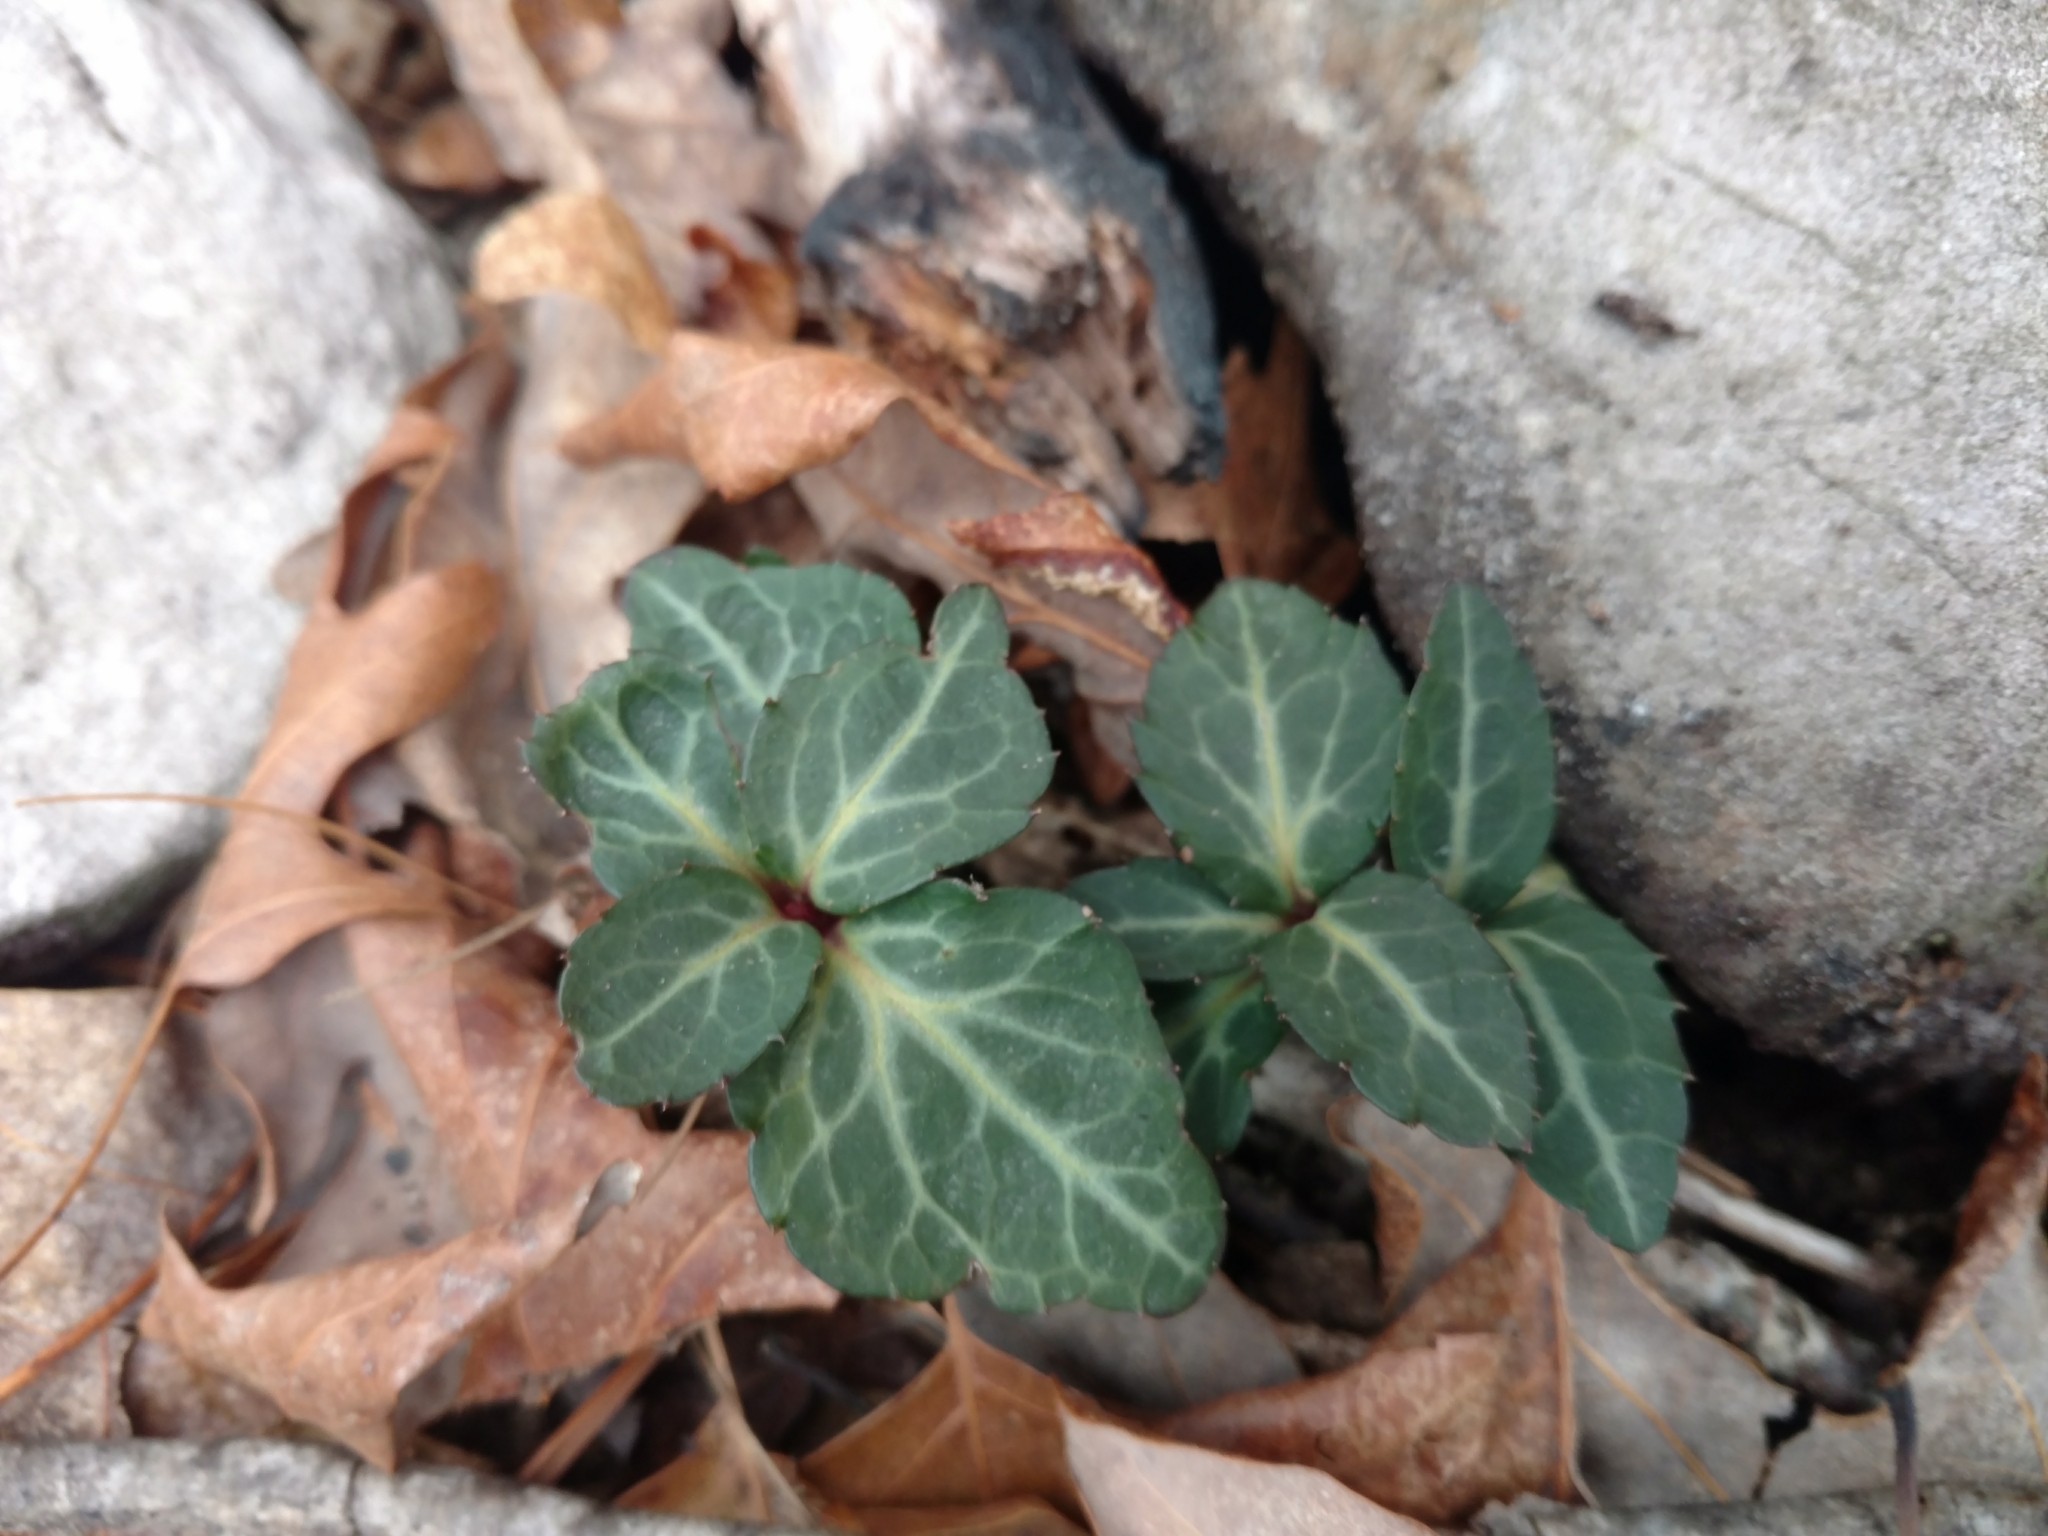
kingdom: Plantae
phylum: Tracheophyta
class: Magnoliopsida
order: Ericales
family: Ericaceae
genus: Chimaphila
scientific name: Chimaphila maculata
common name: Spotted pipsissewa
